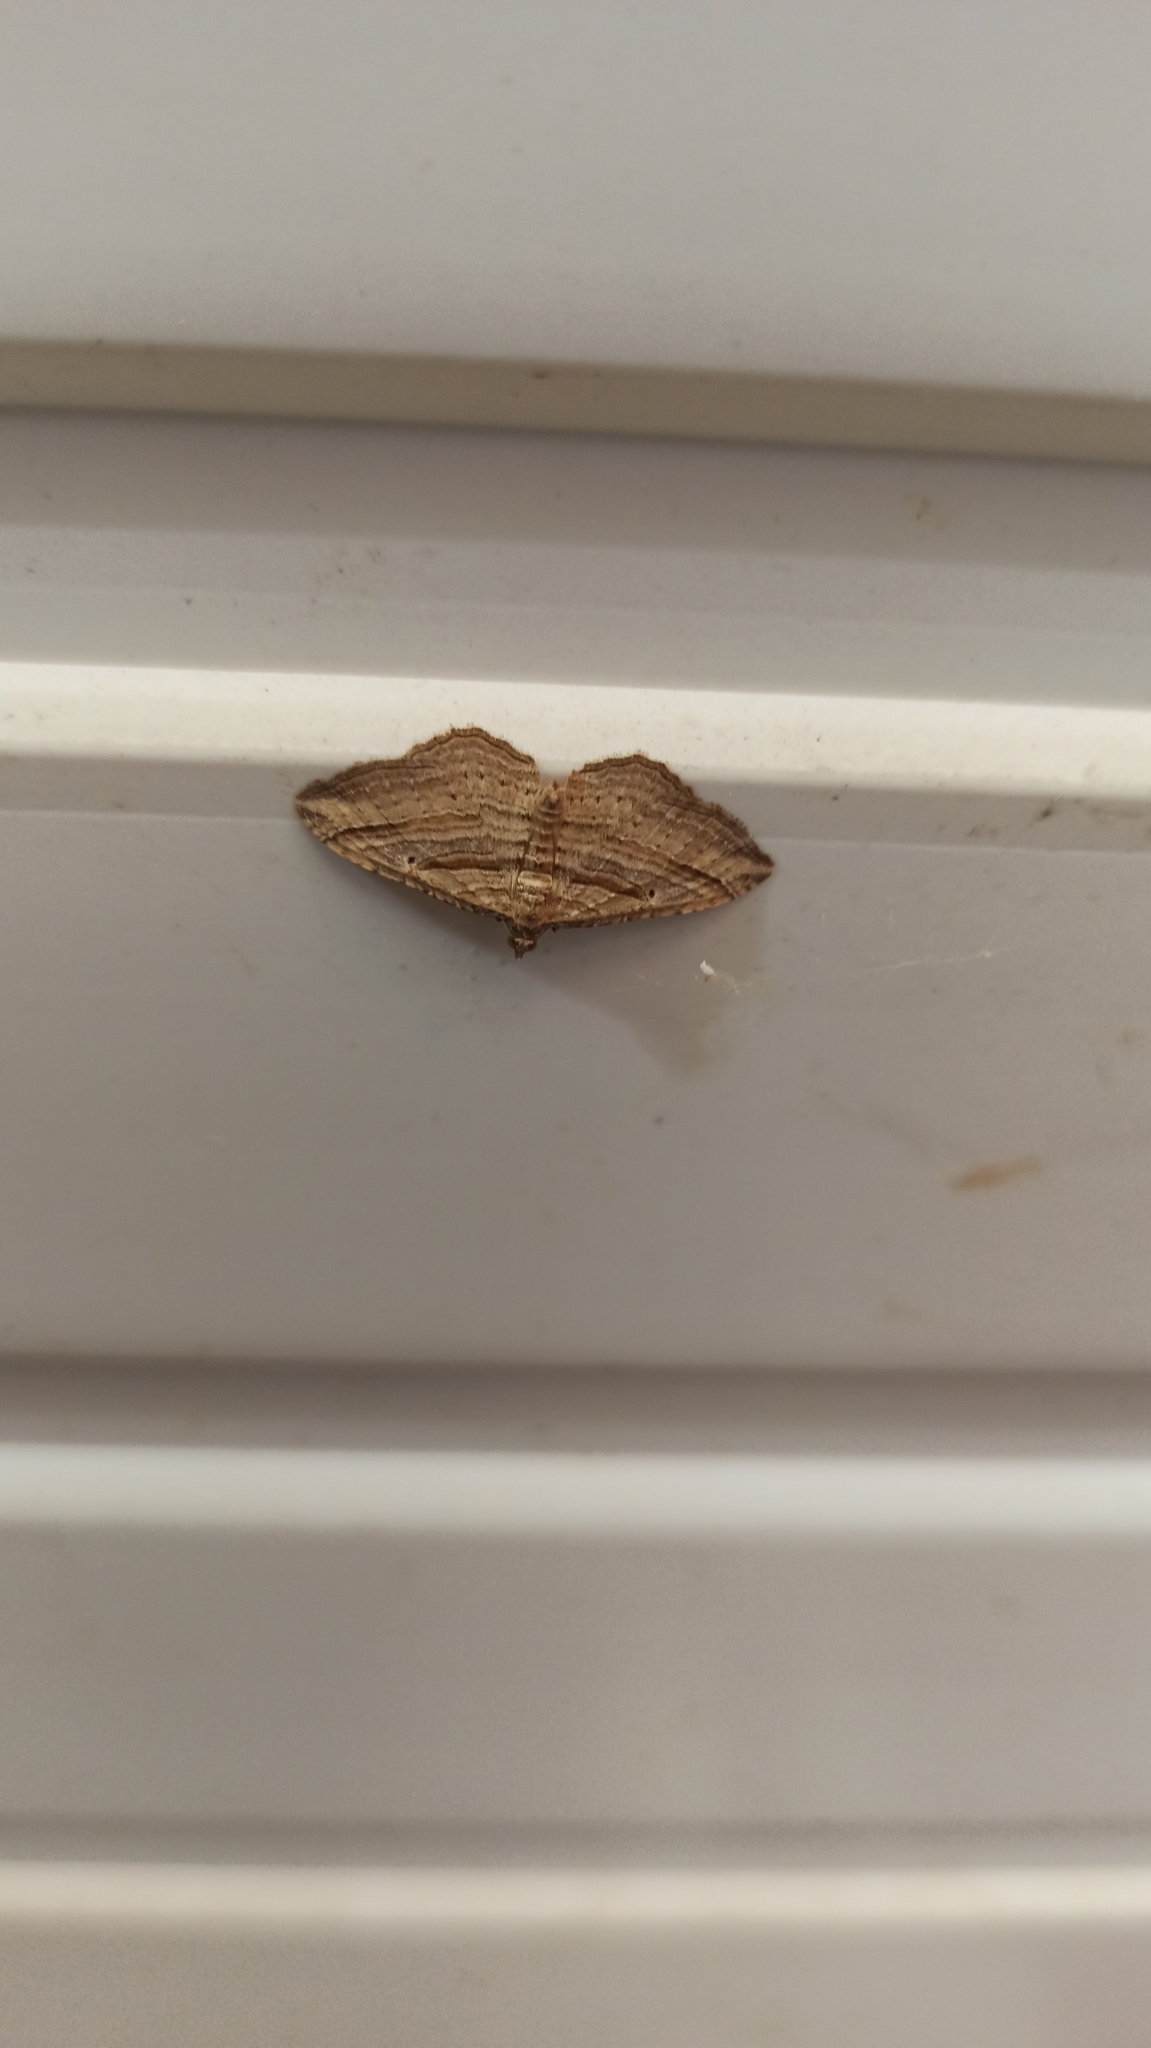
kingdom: Animalia
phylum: Arthropoda
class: Insecta
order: Lepidoptera
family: Geometridae
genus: Costaconvexa
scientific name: Costaconvexa polygrammata
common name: Many-lined
